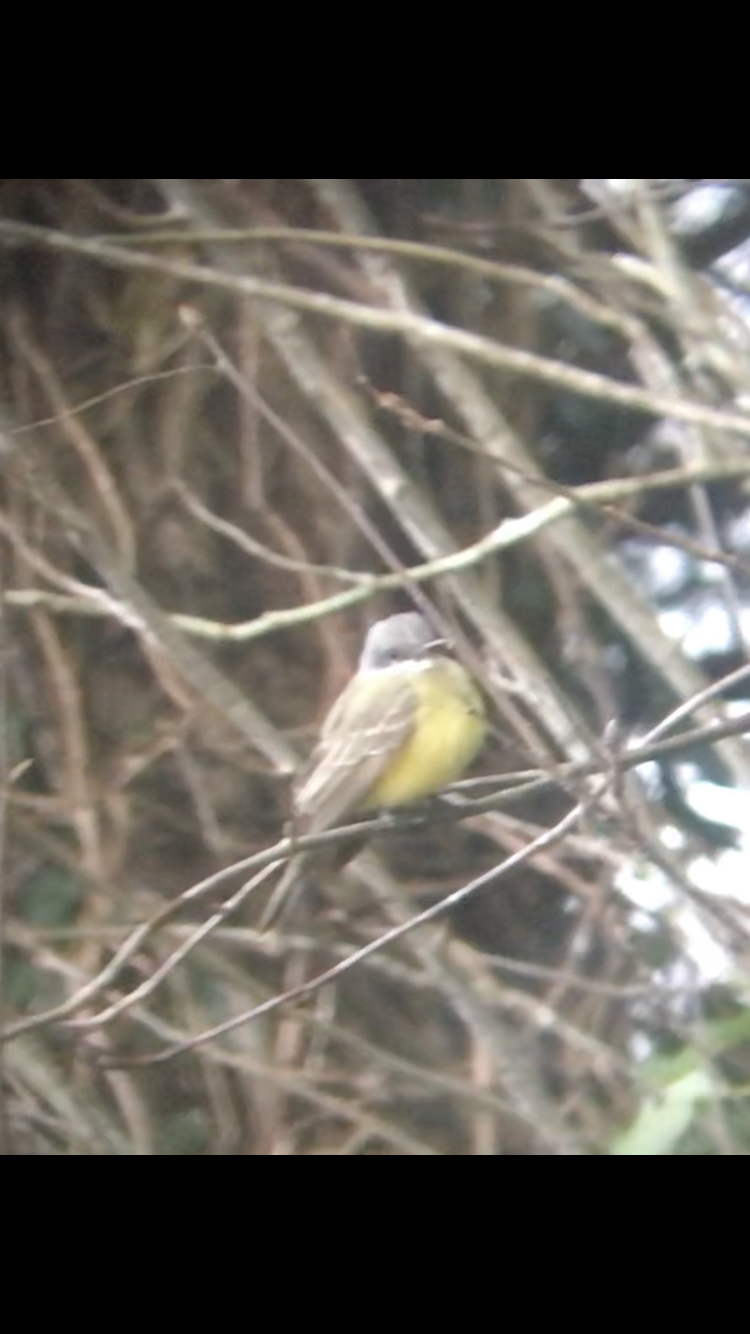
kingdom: Animalia
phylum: Chordata
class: Aves
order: Passeriformes
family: Tyrannidae
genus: Tyrannus
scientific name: Tyrannus melancholicus
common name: Tropical kingbird
